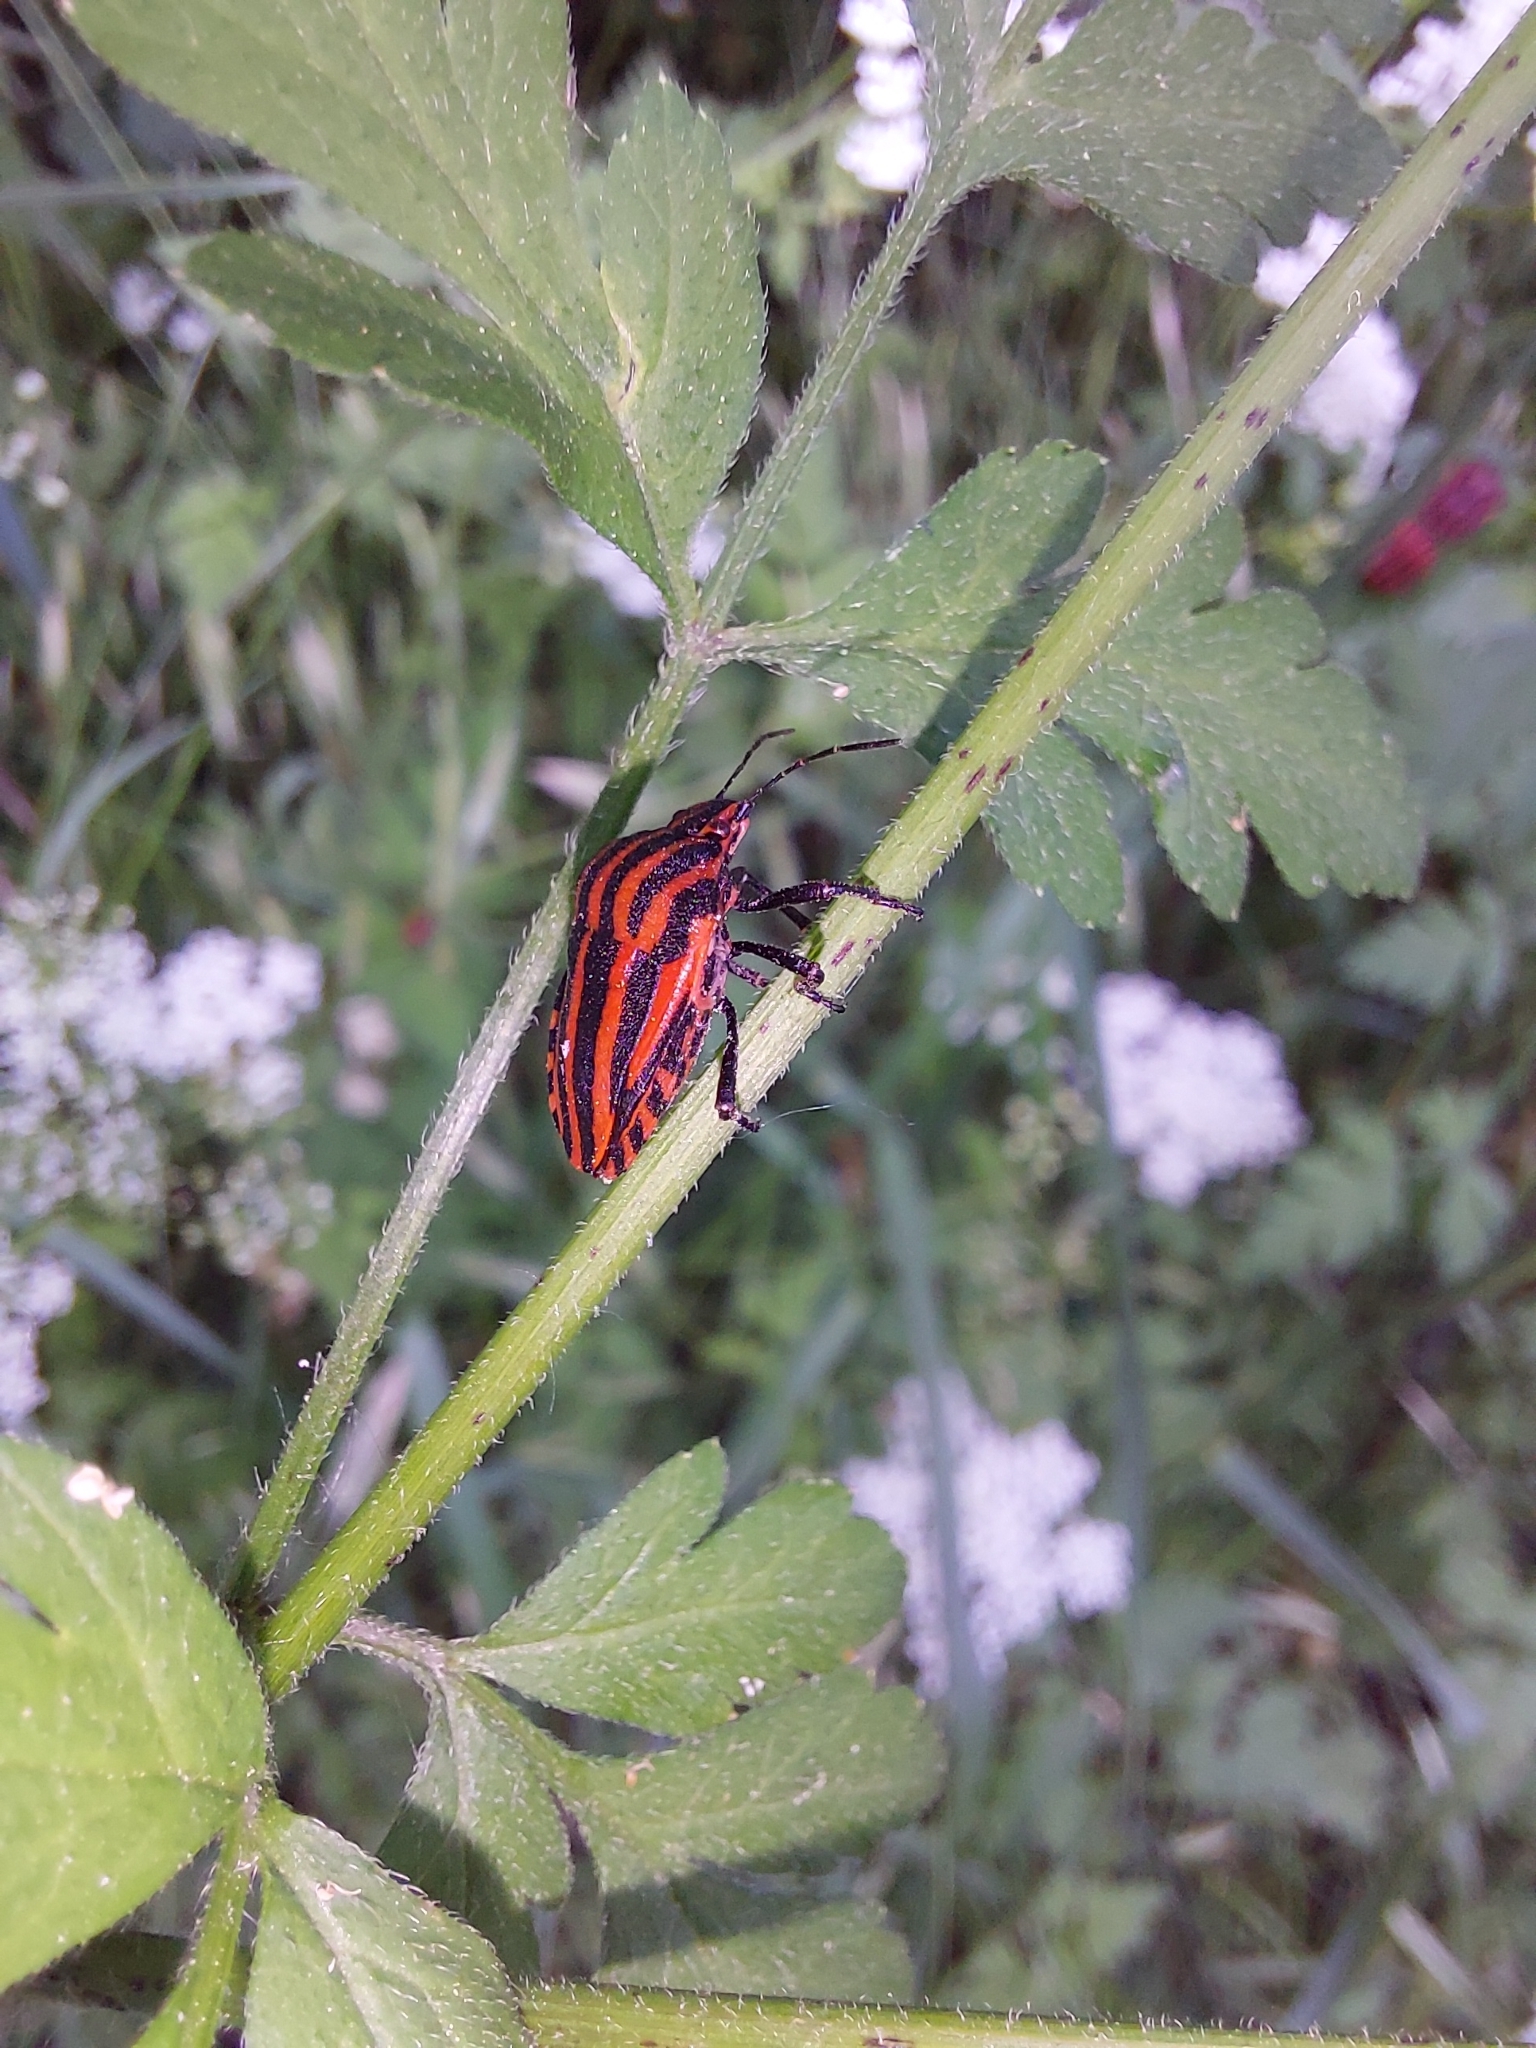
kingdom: Animalia
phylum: Arthropoda
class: Insecta
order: Hemiptera
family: Pentatomidae
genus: Graphosoma
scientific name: Graphosoma italicum
